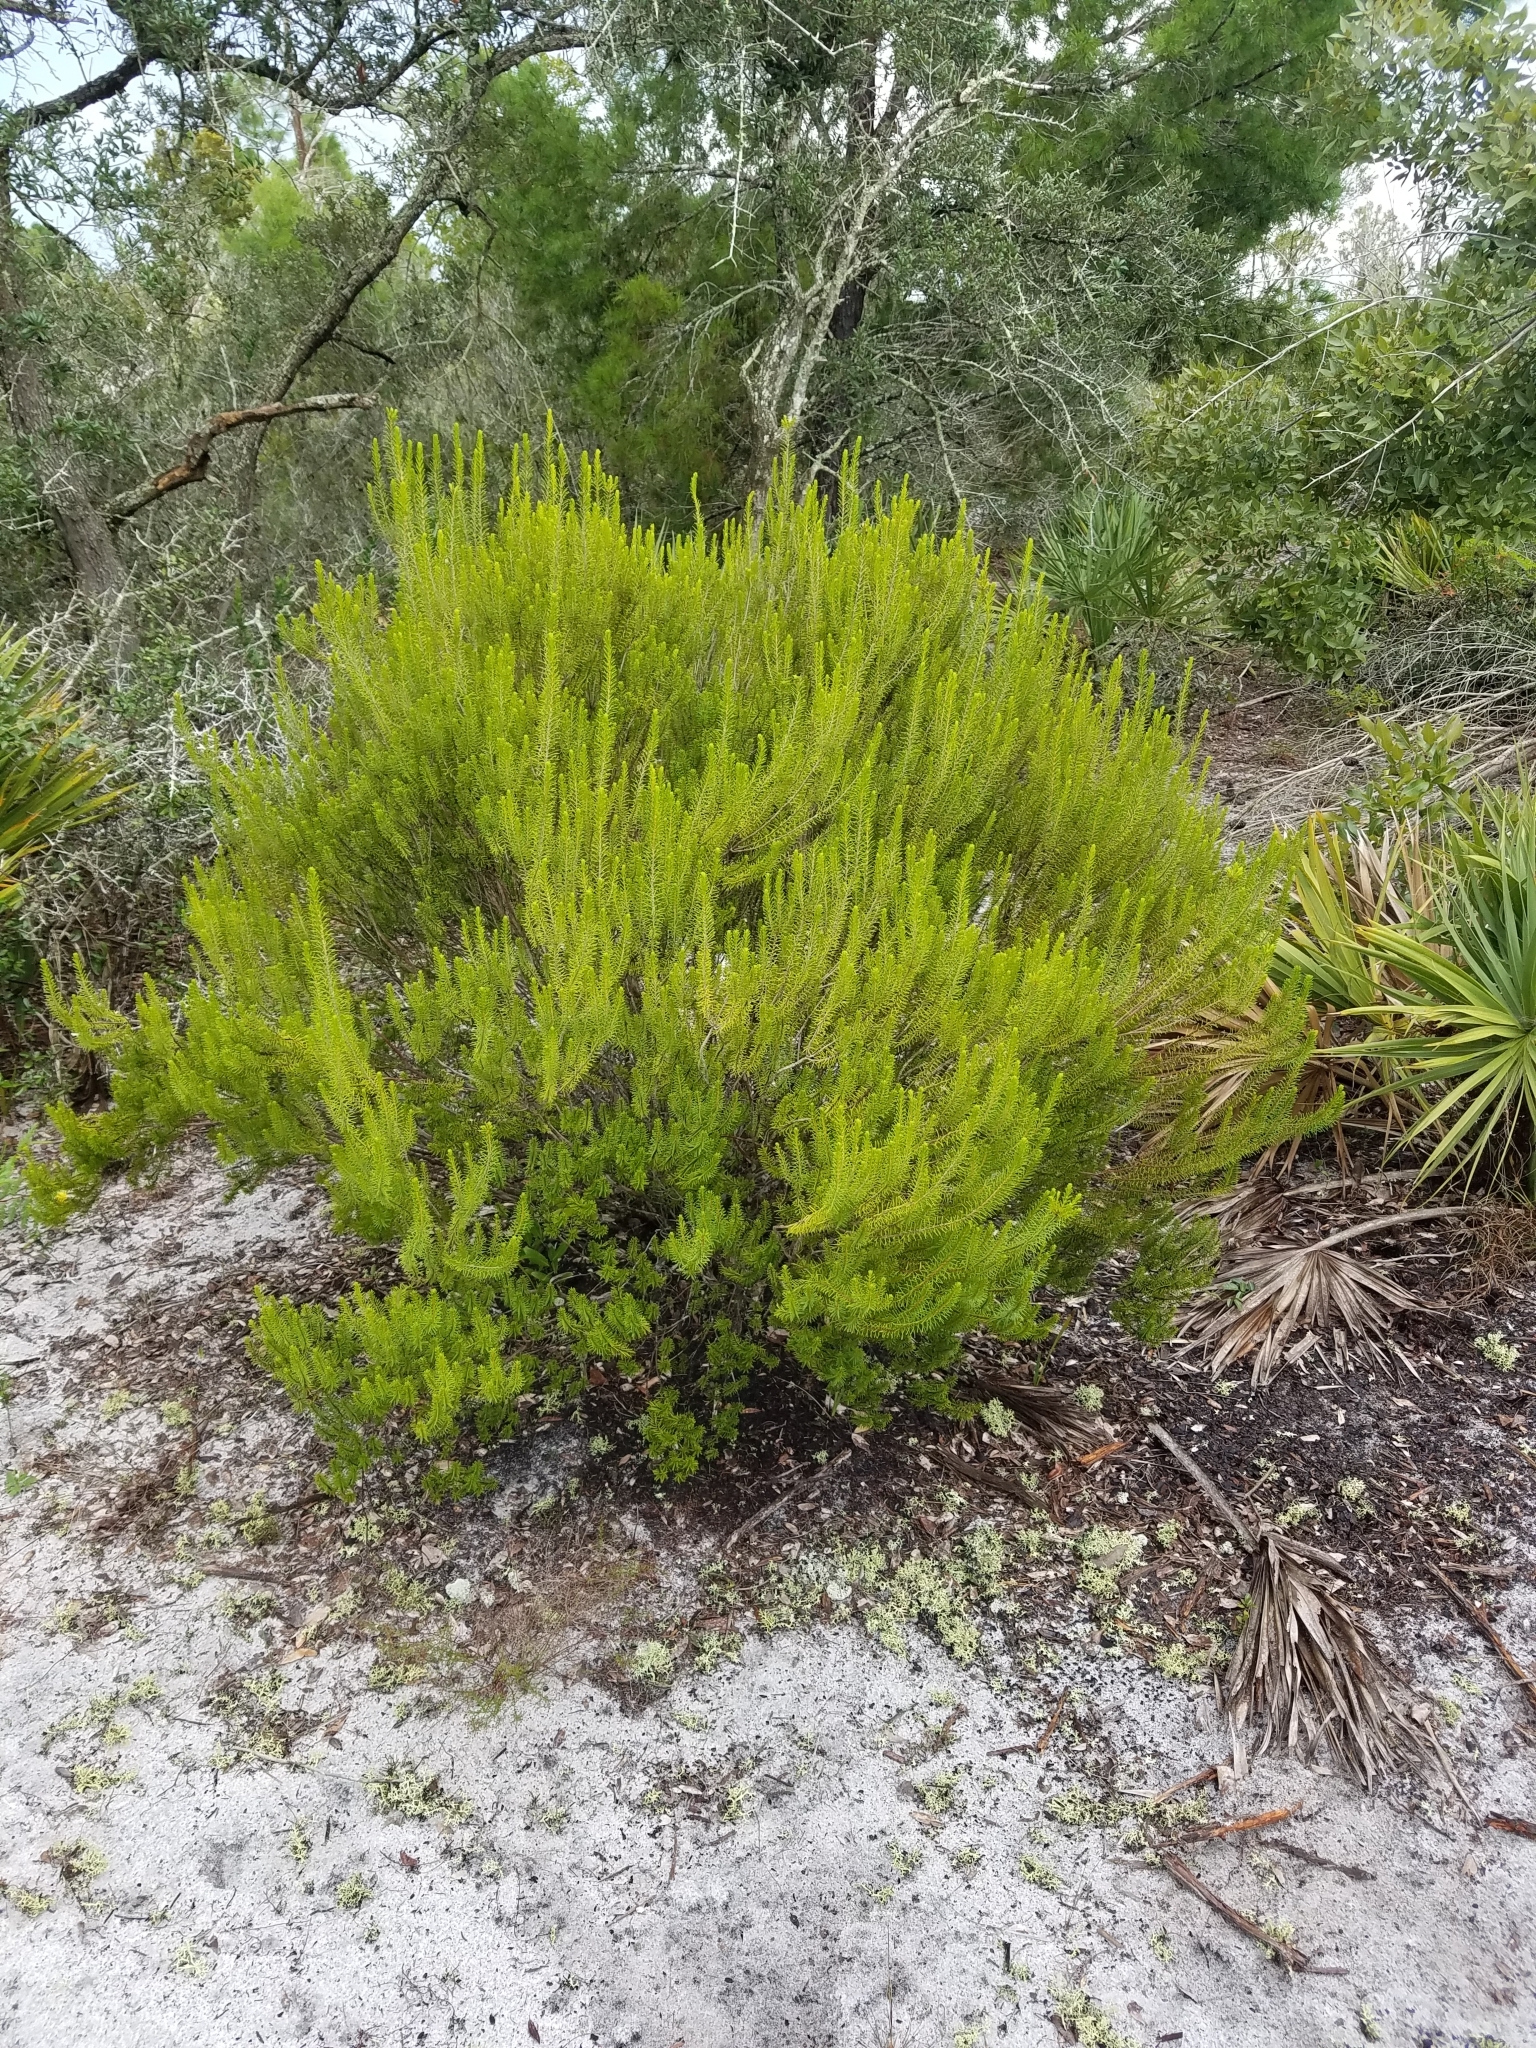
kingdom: Plantae
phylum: Tracheophyta
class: Magnoliopsida
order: Ericales
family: Ericaceae
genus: Ceratiola
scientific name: Ceratiola ericoides
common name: Sandhill-rosemary
